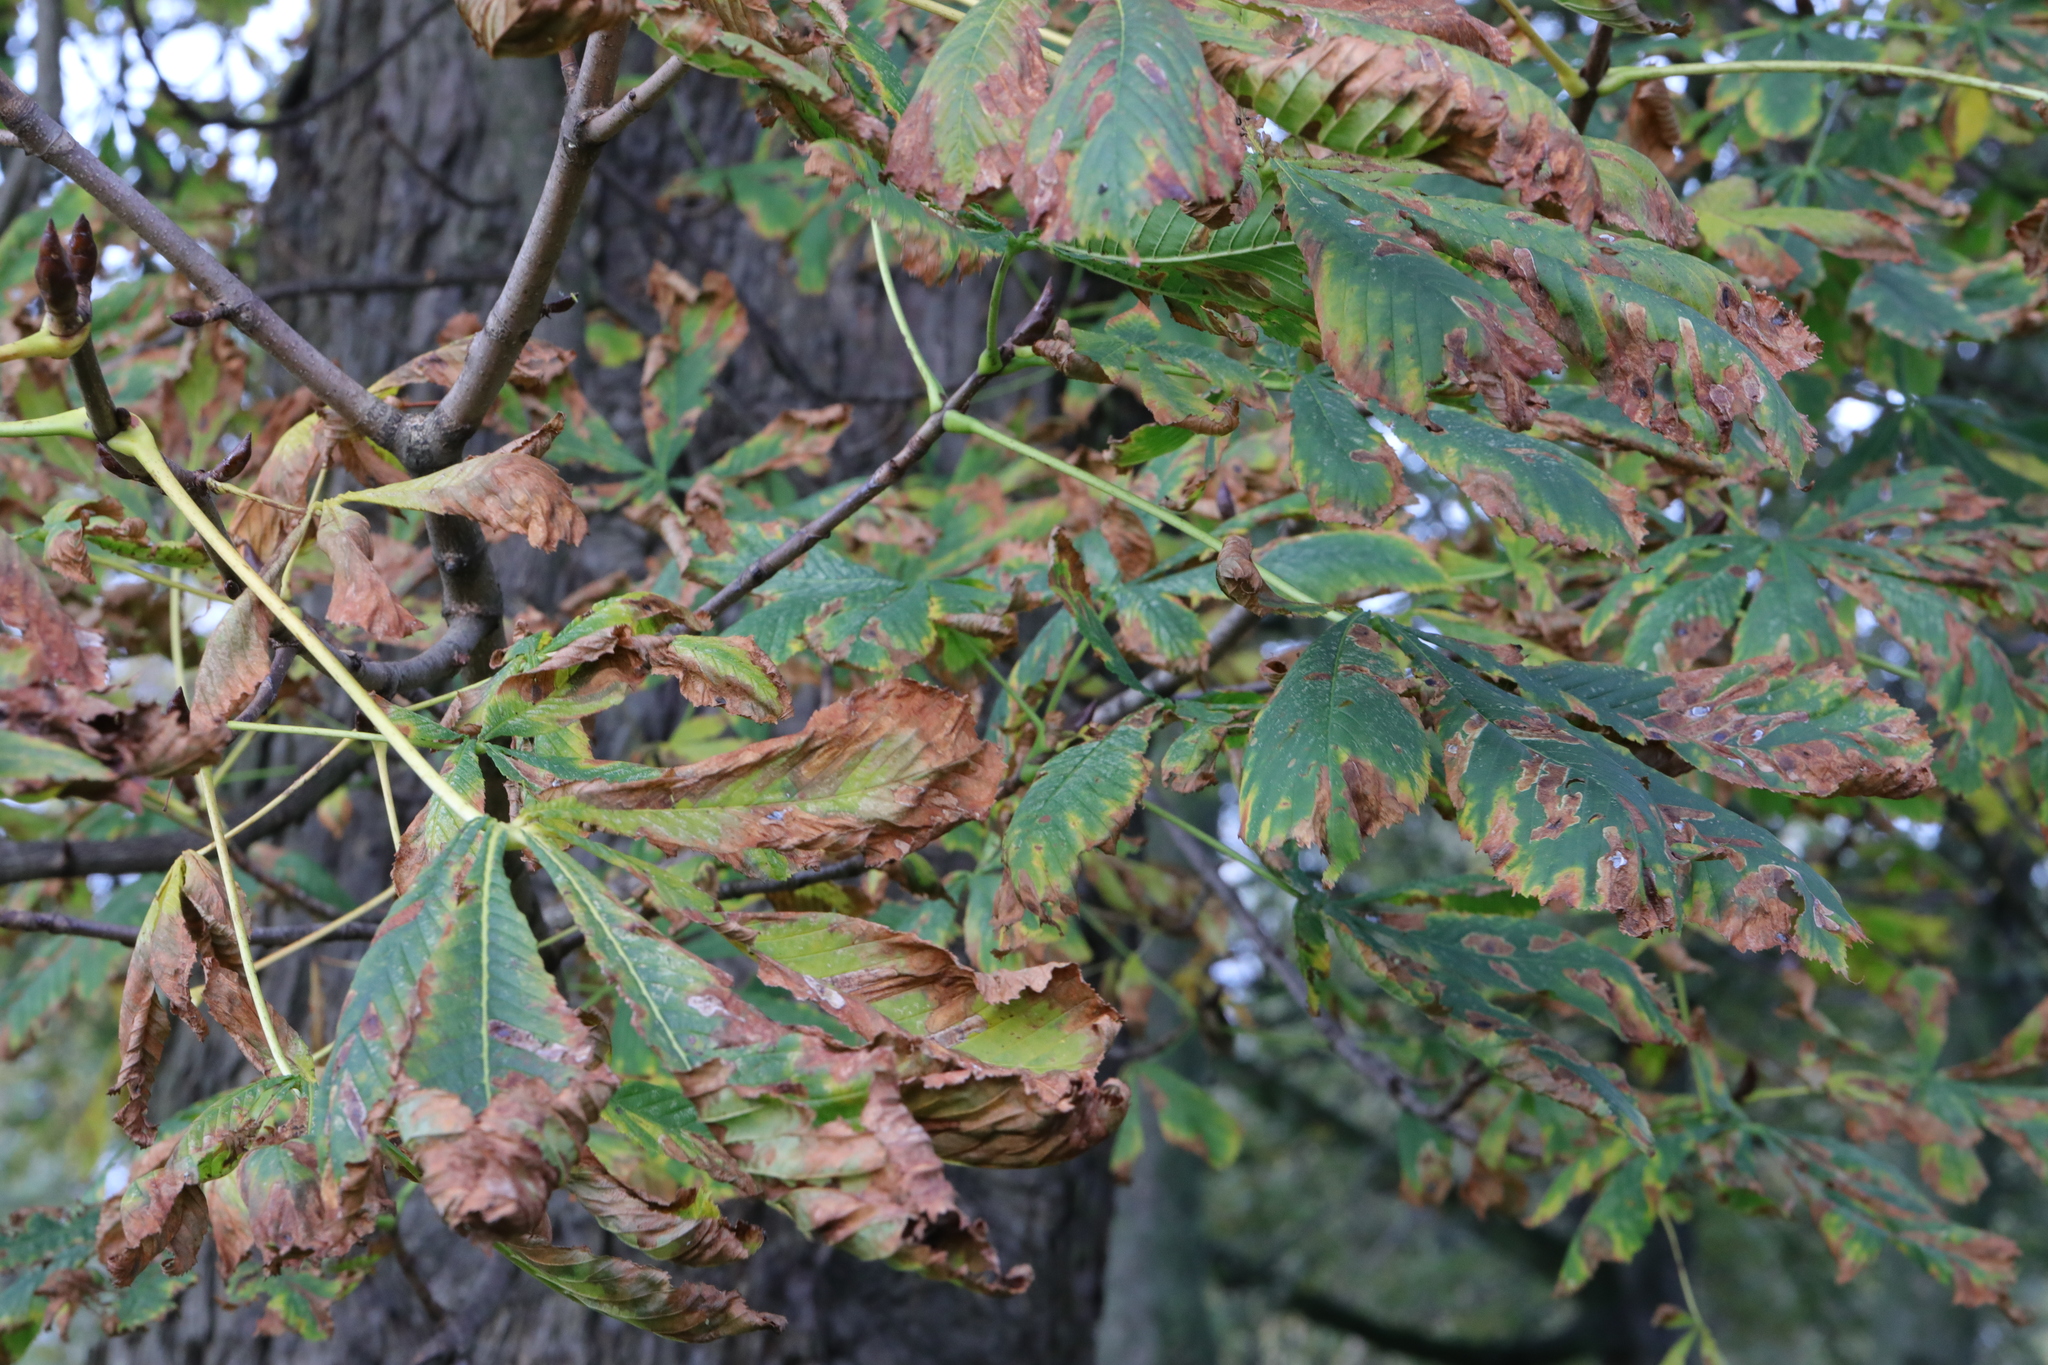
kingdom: Plantae
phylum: Tracheophyta
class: Magnoliopsida
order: Sapindales
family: Sapindaceae
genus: Aesculus
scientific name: Aesculus hippocastanum
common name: Horse-chestnut
